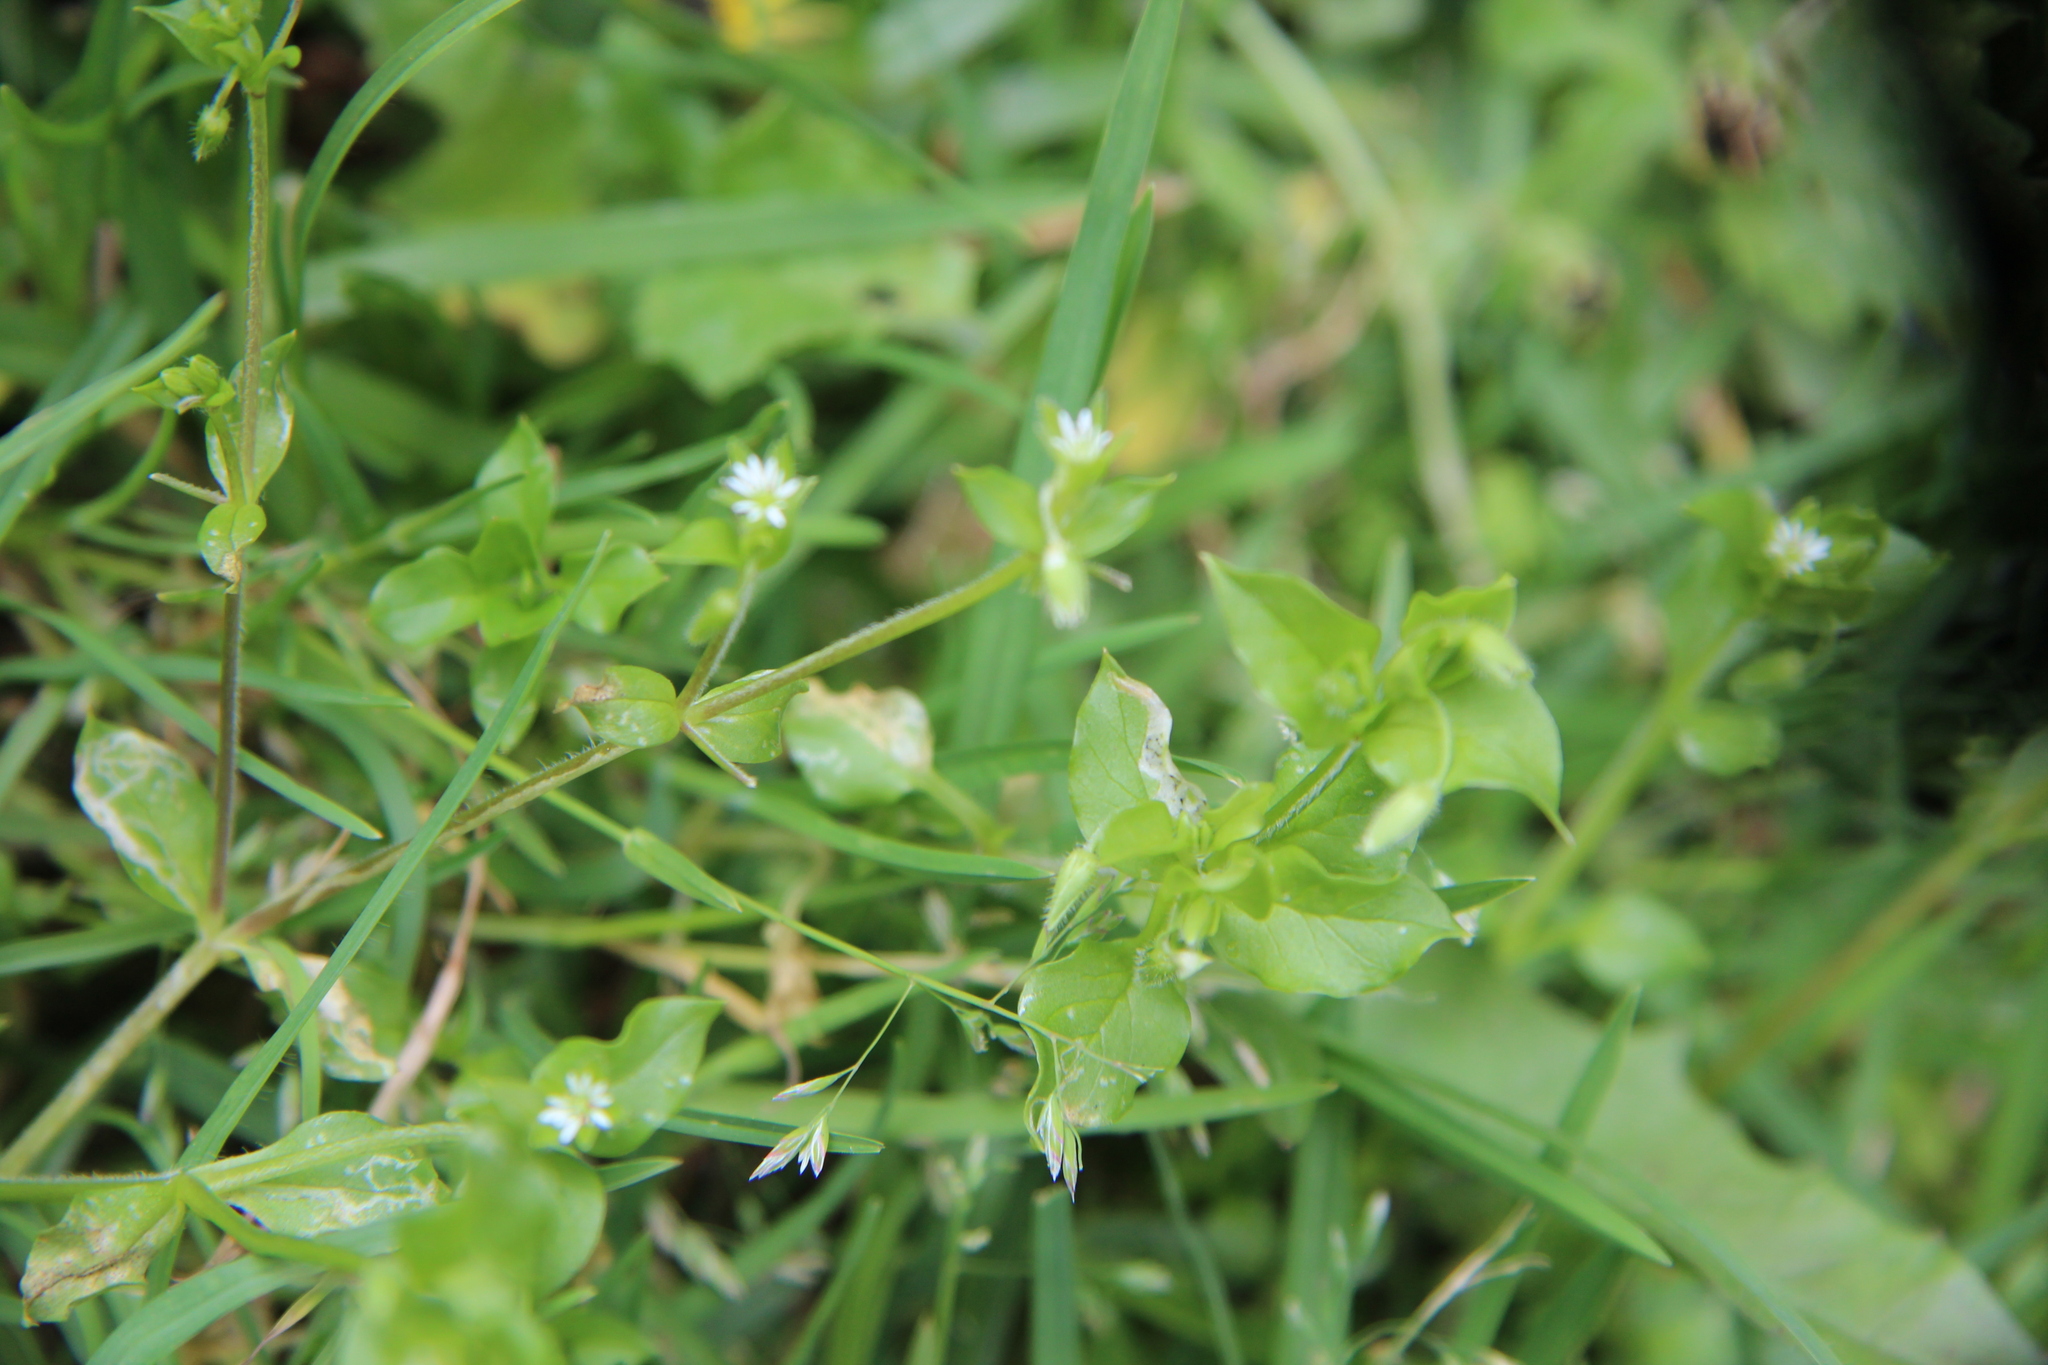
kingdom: Plantae
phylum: Tracheophyta
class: Magnoliopsida
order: Caryophyllales
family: Caryophyllaceae
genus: Stellaria
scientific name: Stellaria media
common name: Common chickweed
